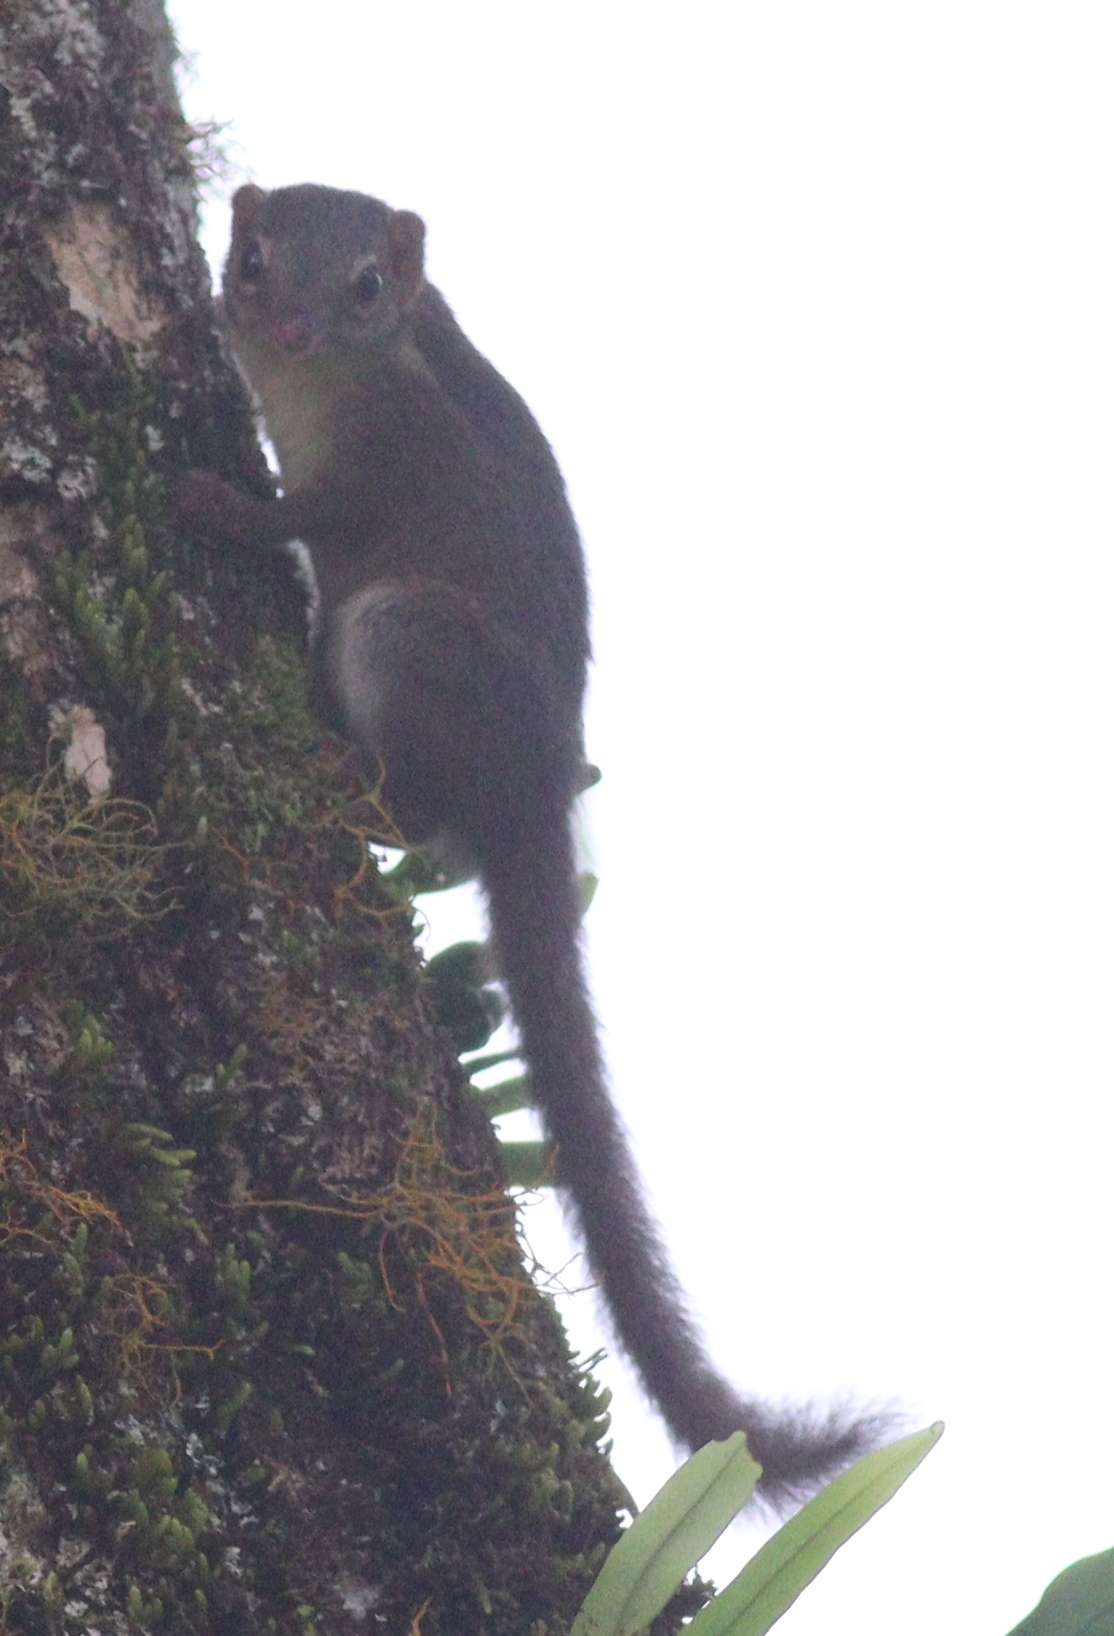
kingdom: Animalia
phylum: Chordata
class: Mammalia
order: Scandentia
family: Tupaiidae
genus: Tupaia
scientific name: Tupaia javanica
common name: Horsfield's treeshrew
